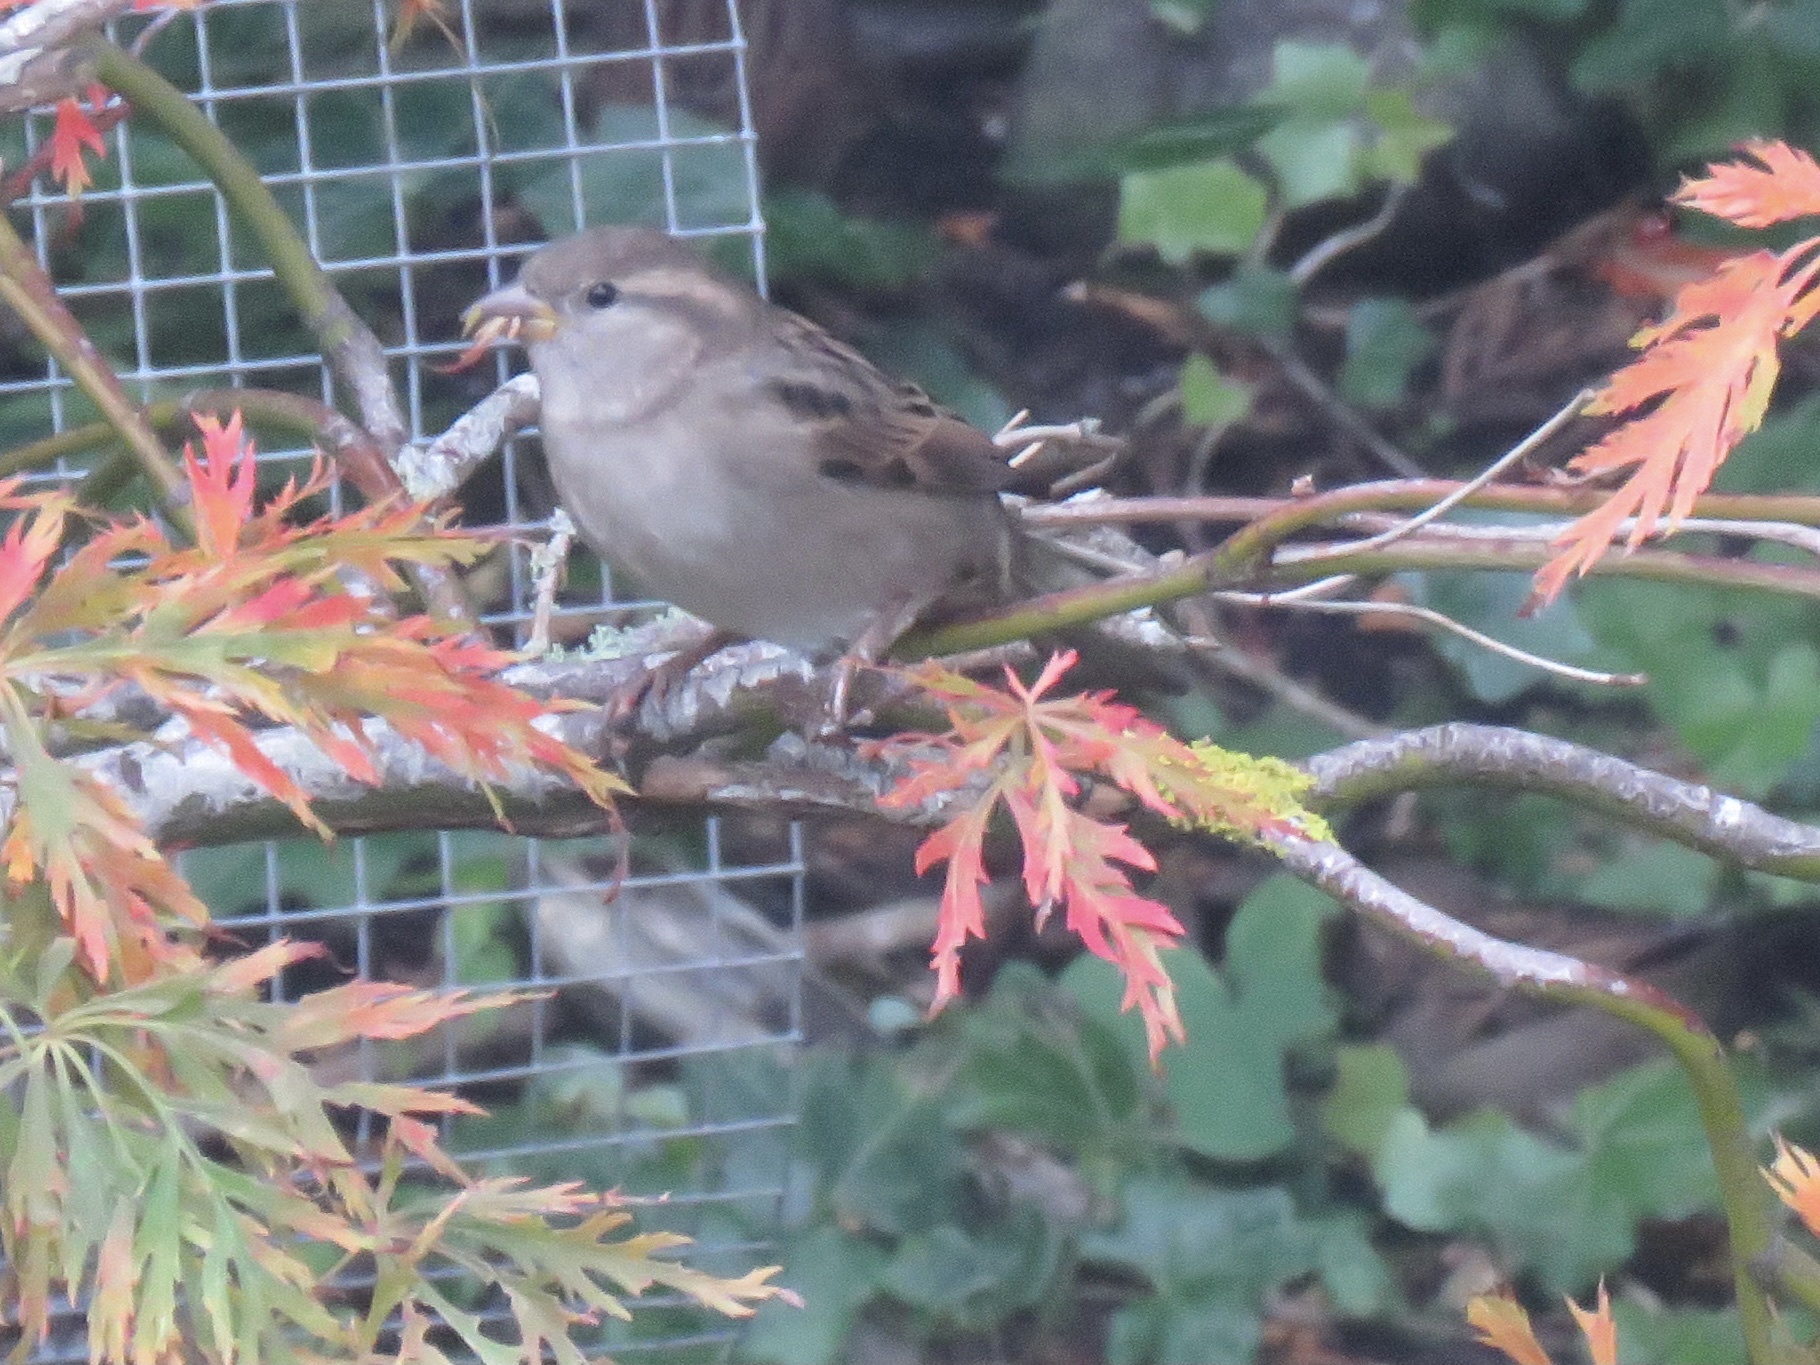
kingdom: Animalia
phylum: Chordata
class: Aves
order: Passeriformes
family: Passeridae
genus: Passer
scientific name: Passer domesticus
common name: House sparrow
